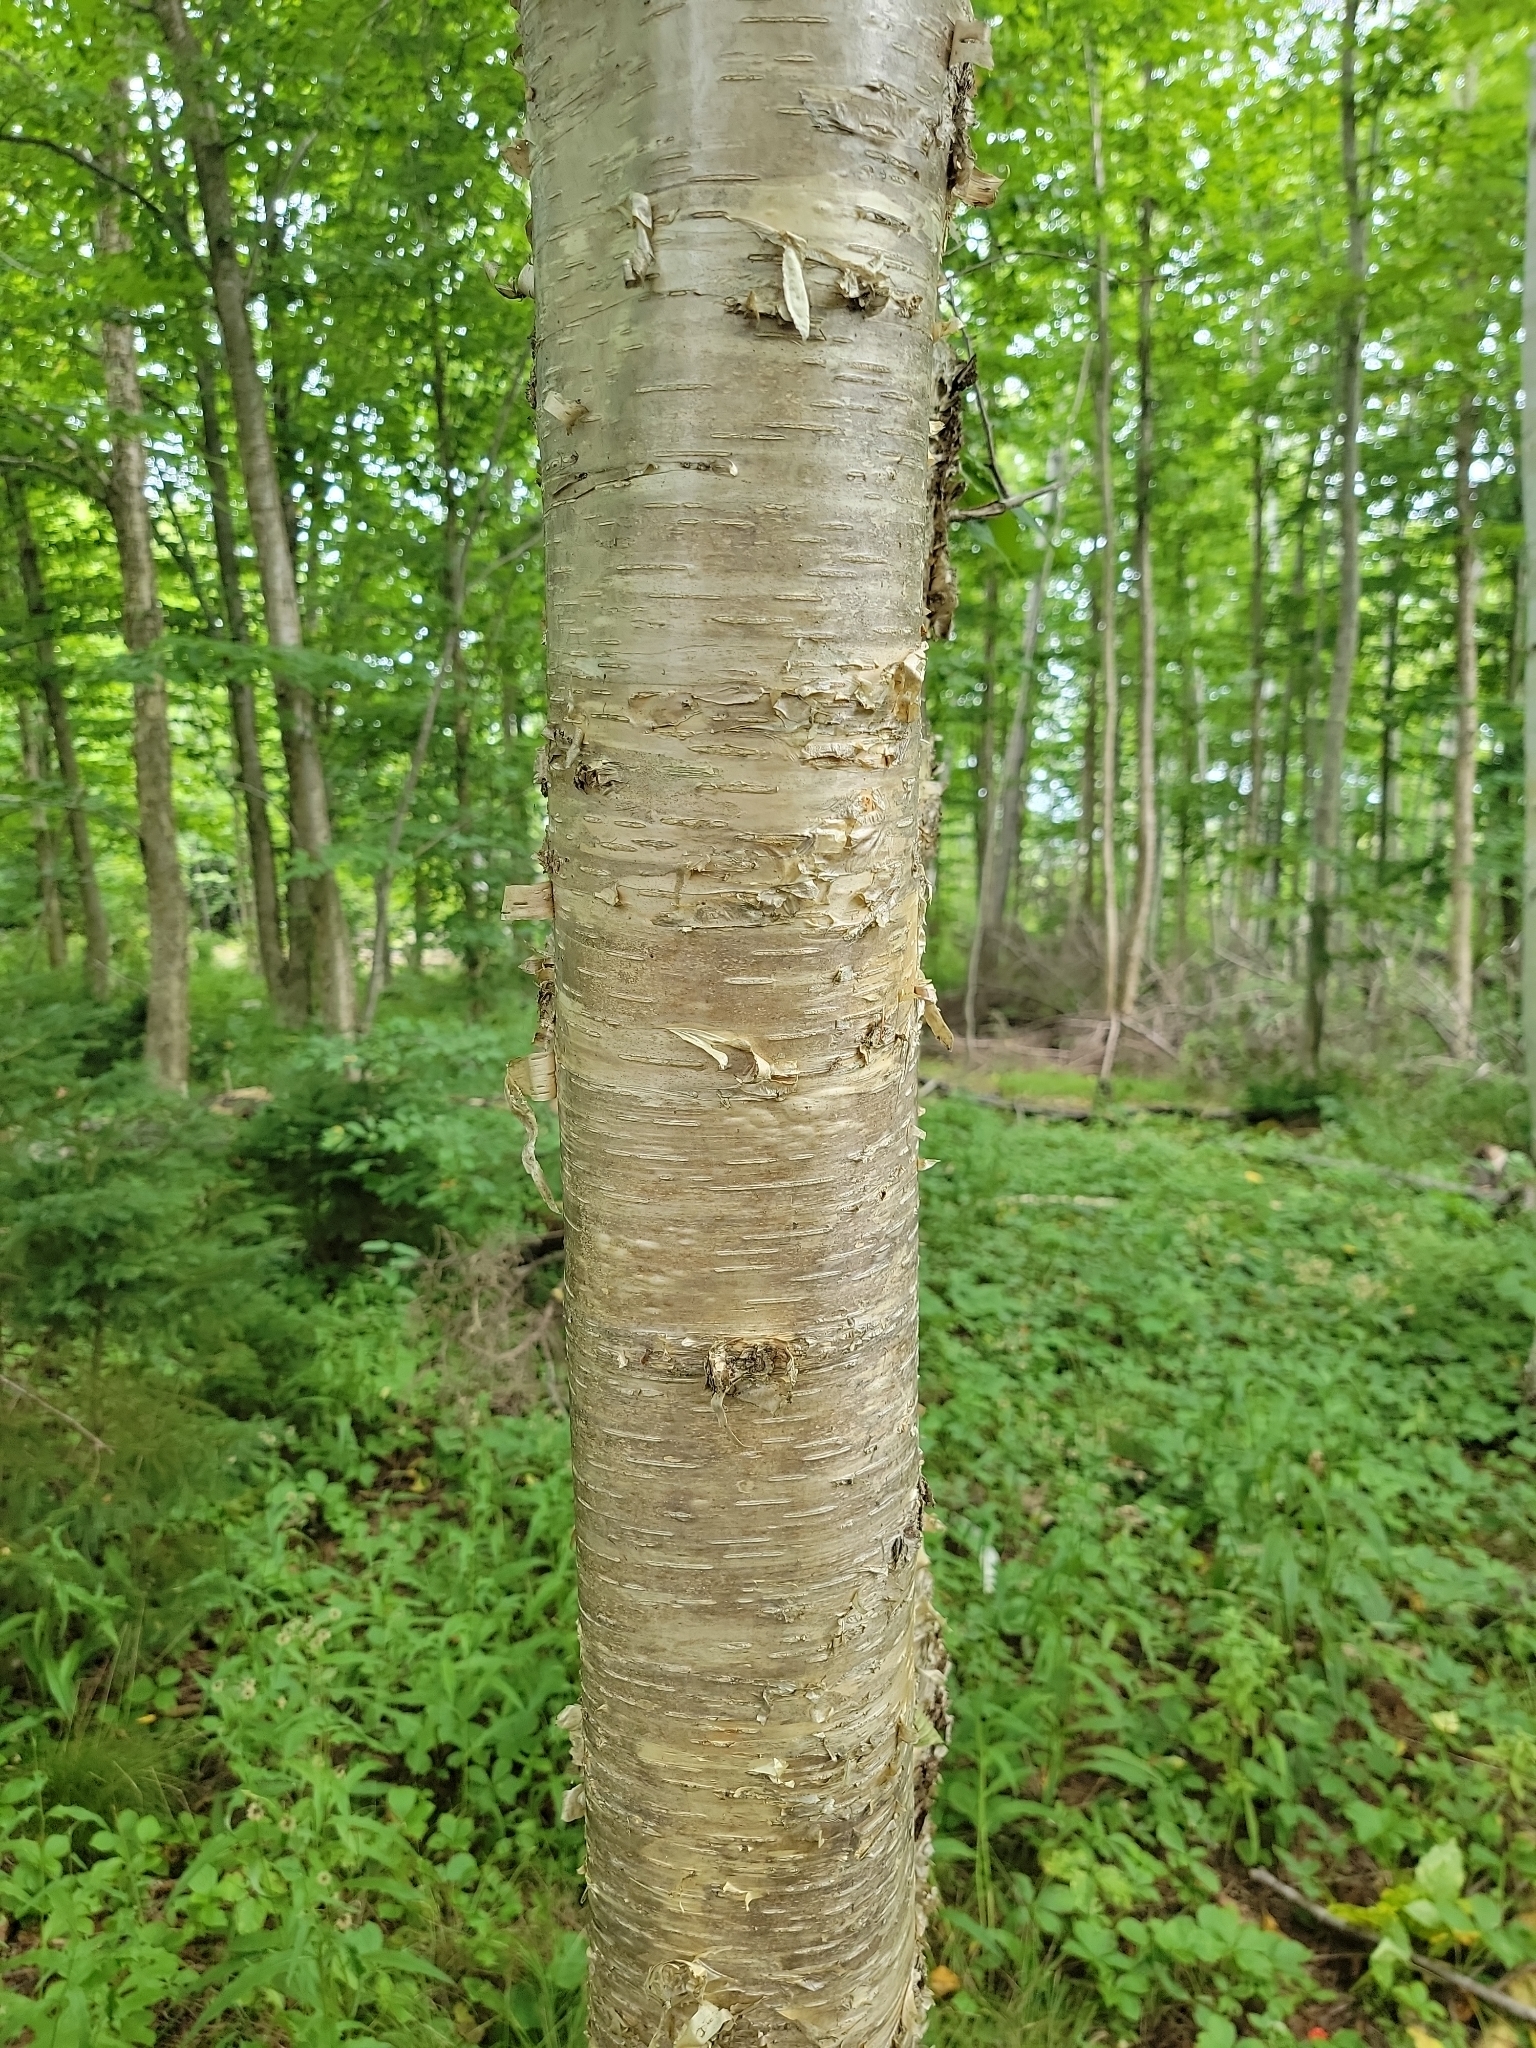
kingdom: Plantae
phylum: Tracheophyta
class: Magnoliopsida
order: Fagales
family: Betulaceae
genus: Betula
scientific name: Betula alleghaniensis
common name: Yellow birch
